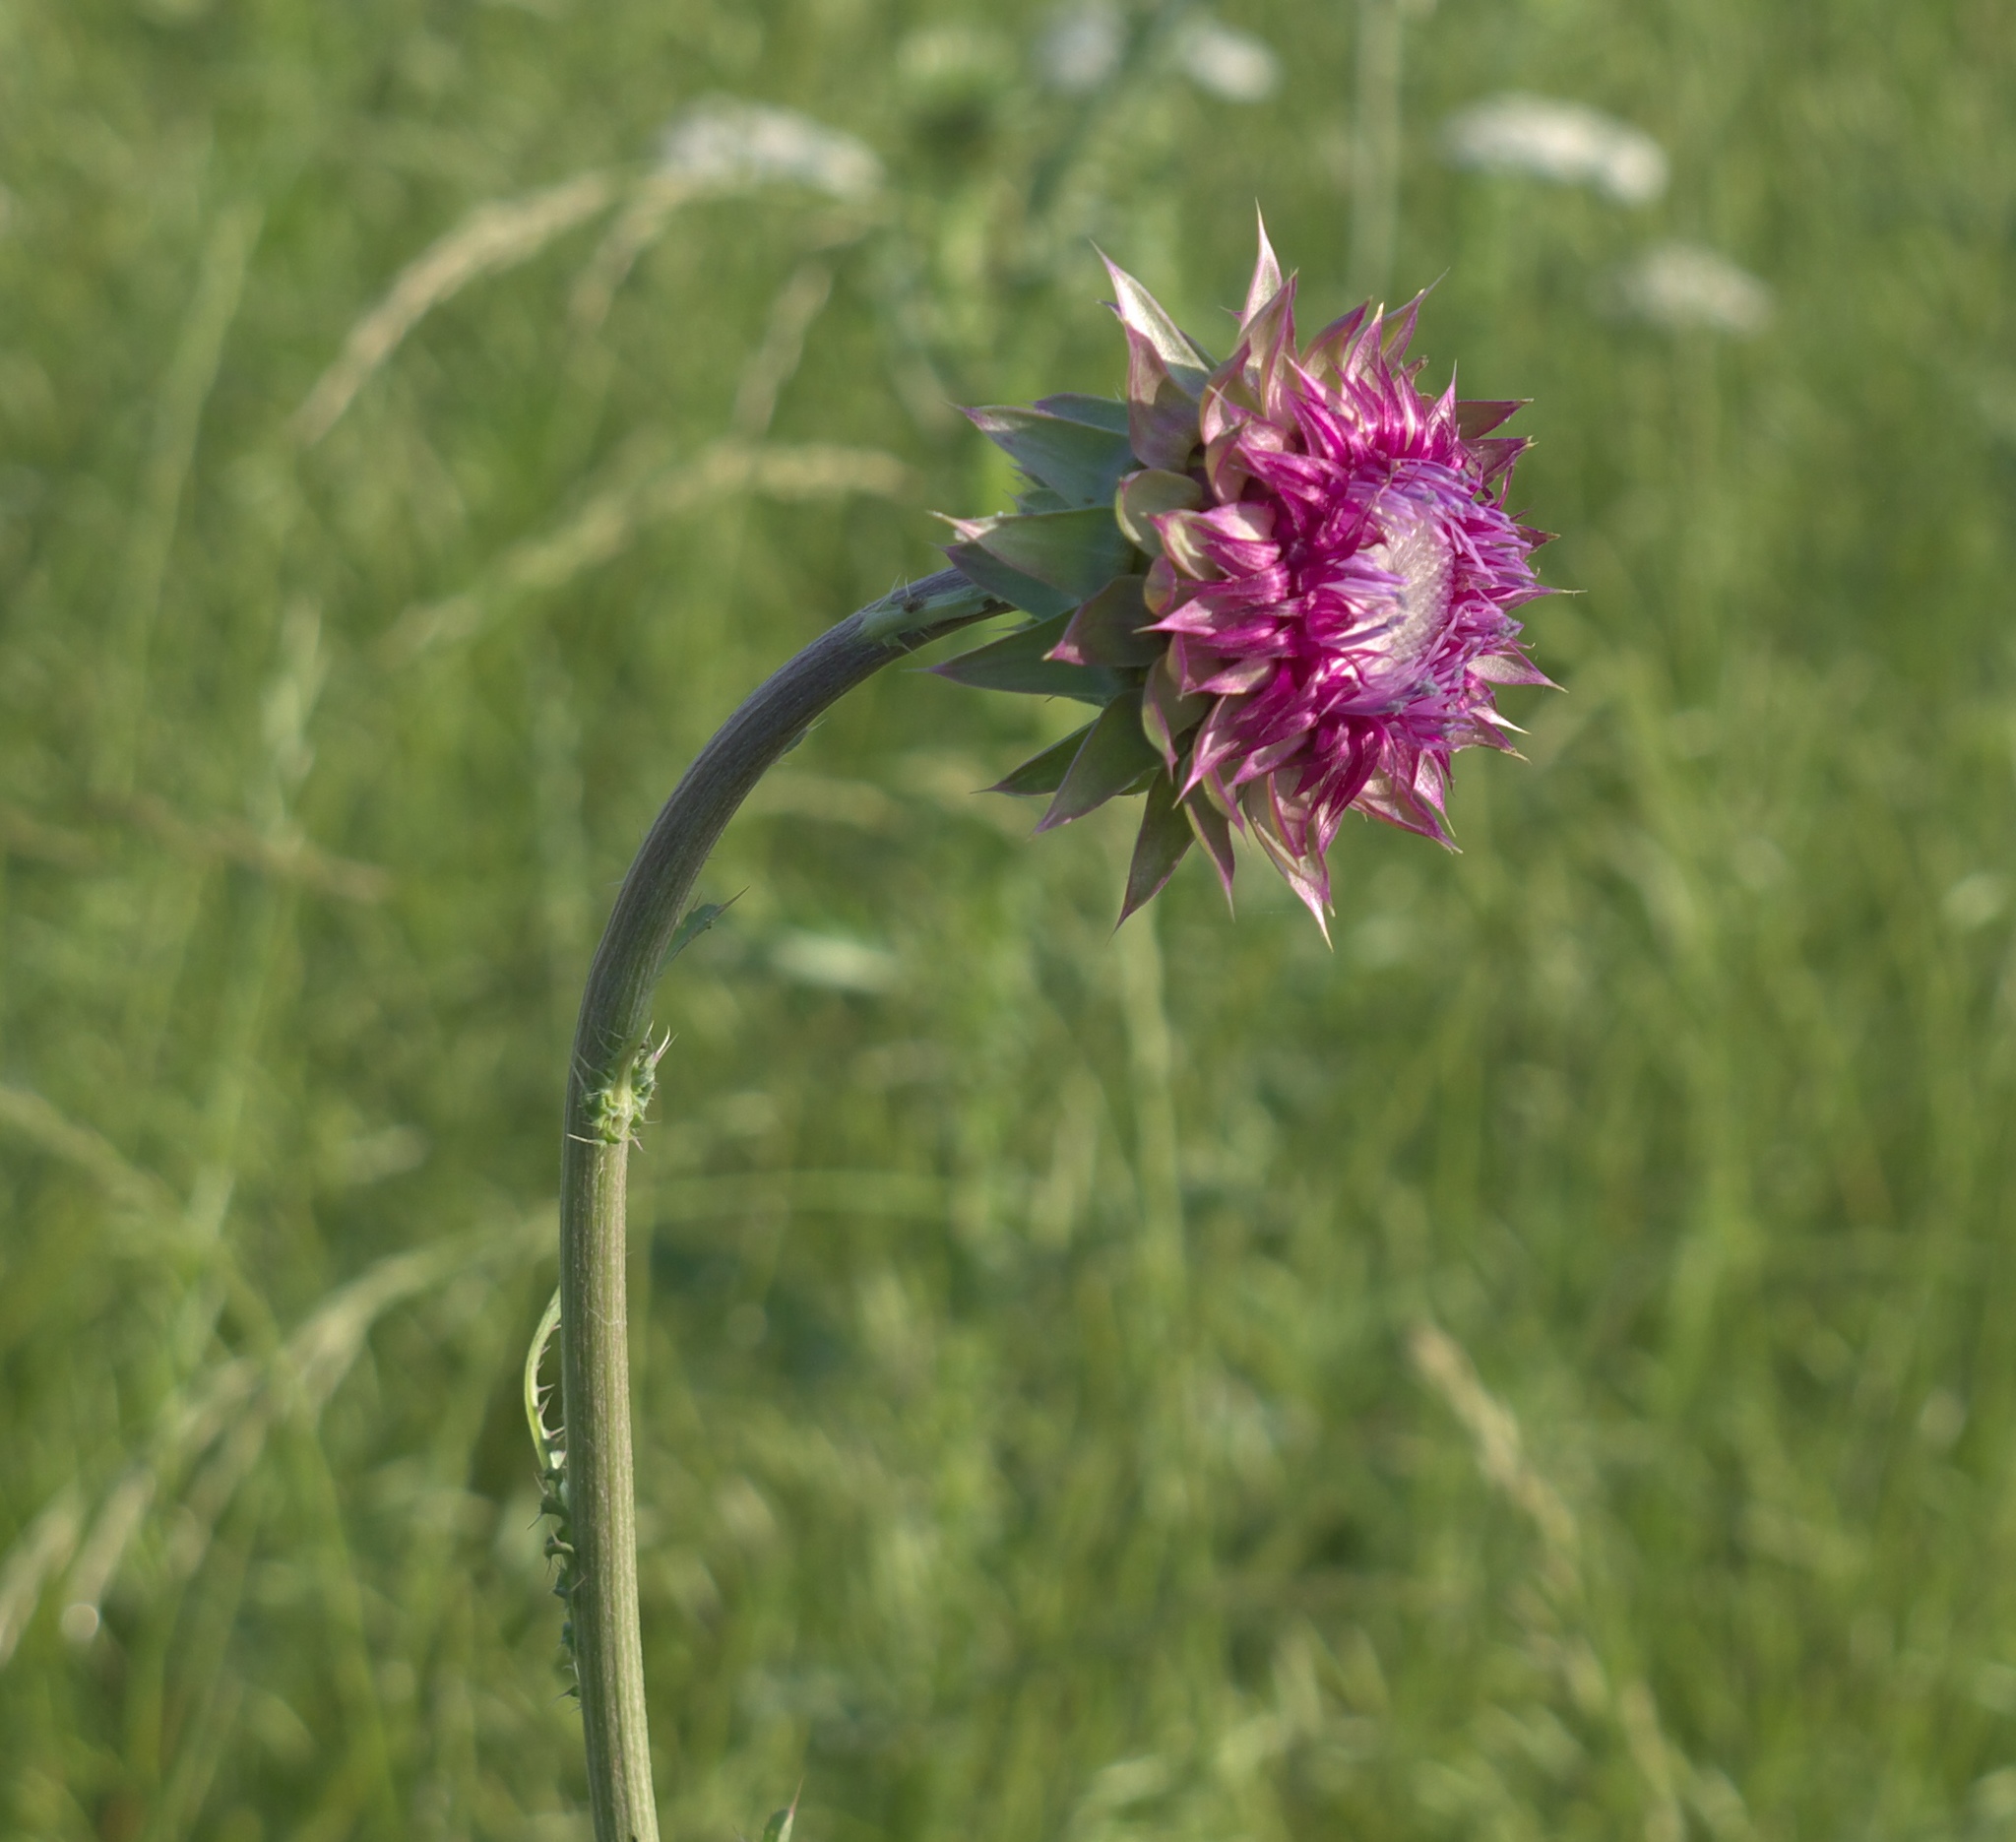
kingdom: Plantae
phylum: Tracheophyta
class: Magnoliopsida
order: Asterales
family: Asteraceae
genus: Carduus
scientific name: Carduus nutans
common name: Musk thistle
